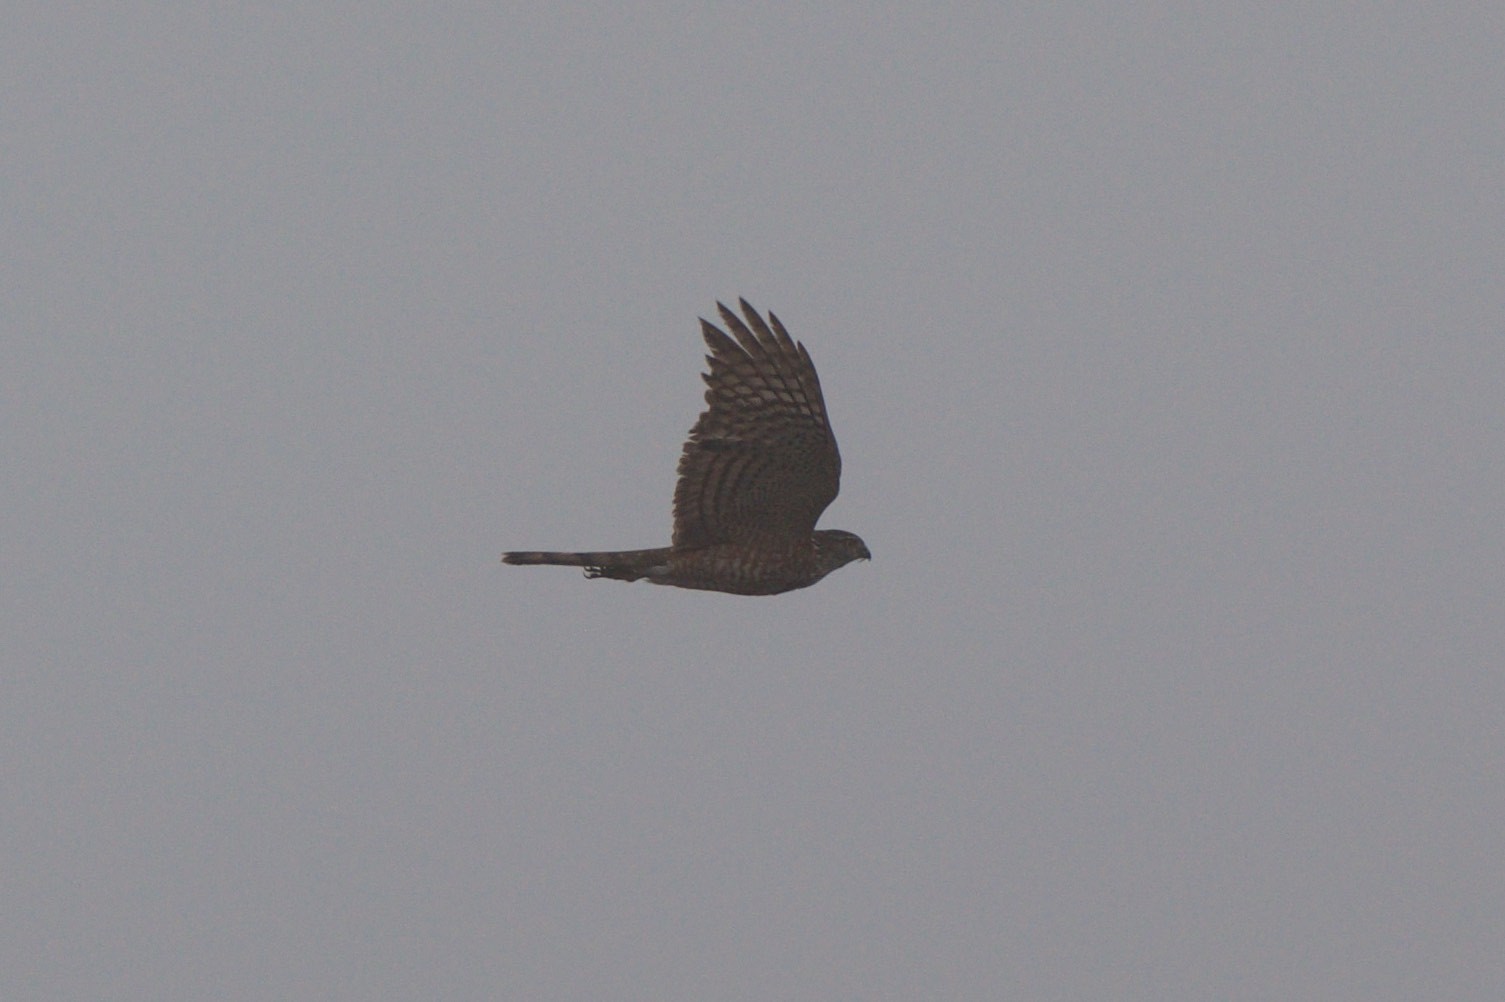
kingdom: Animalia
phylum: Chordata
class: Aves
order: Accipitriformes
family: Accipitridae
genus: Accipiter
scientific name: Accipiter striatus
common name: Sharp-shinned hawk
